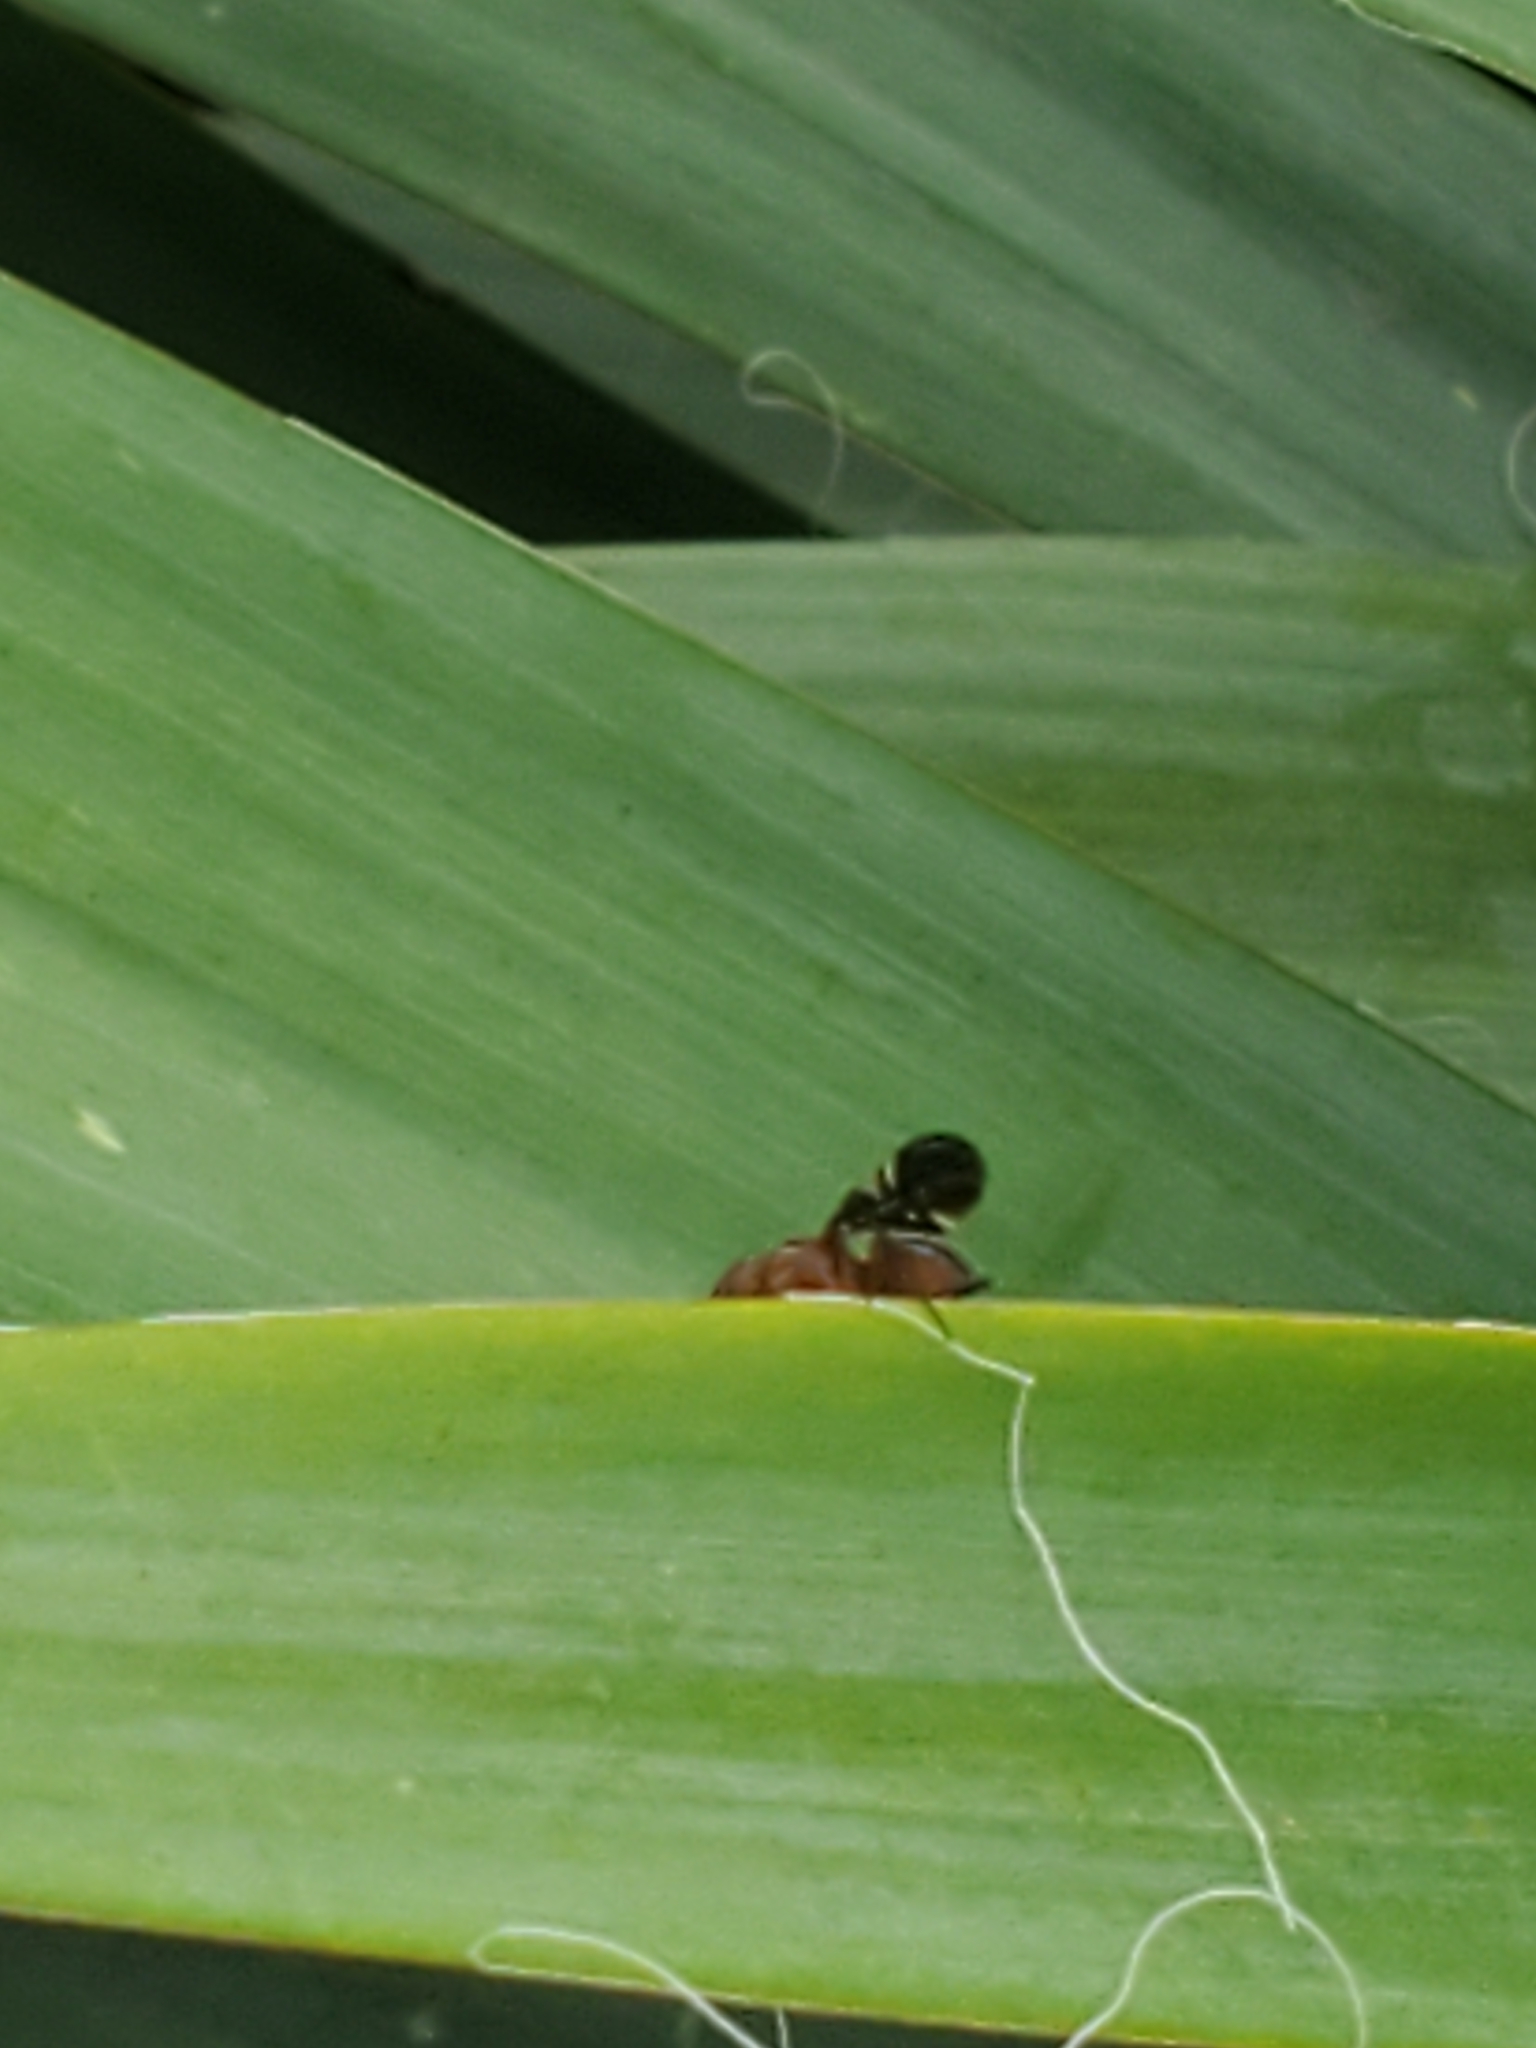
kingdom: Animalia
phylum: Arthropoda
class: Insecta
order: Diptera
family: Ulidiidae
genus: Delphinia
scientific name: Delphinia picta
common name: Common picture-winged fly
